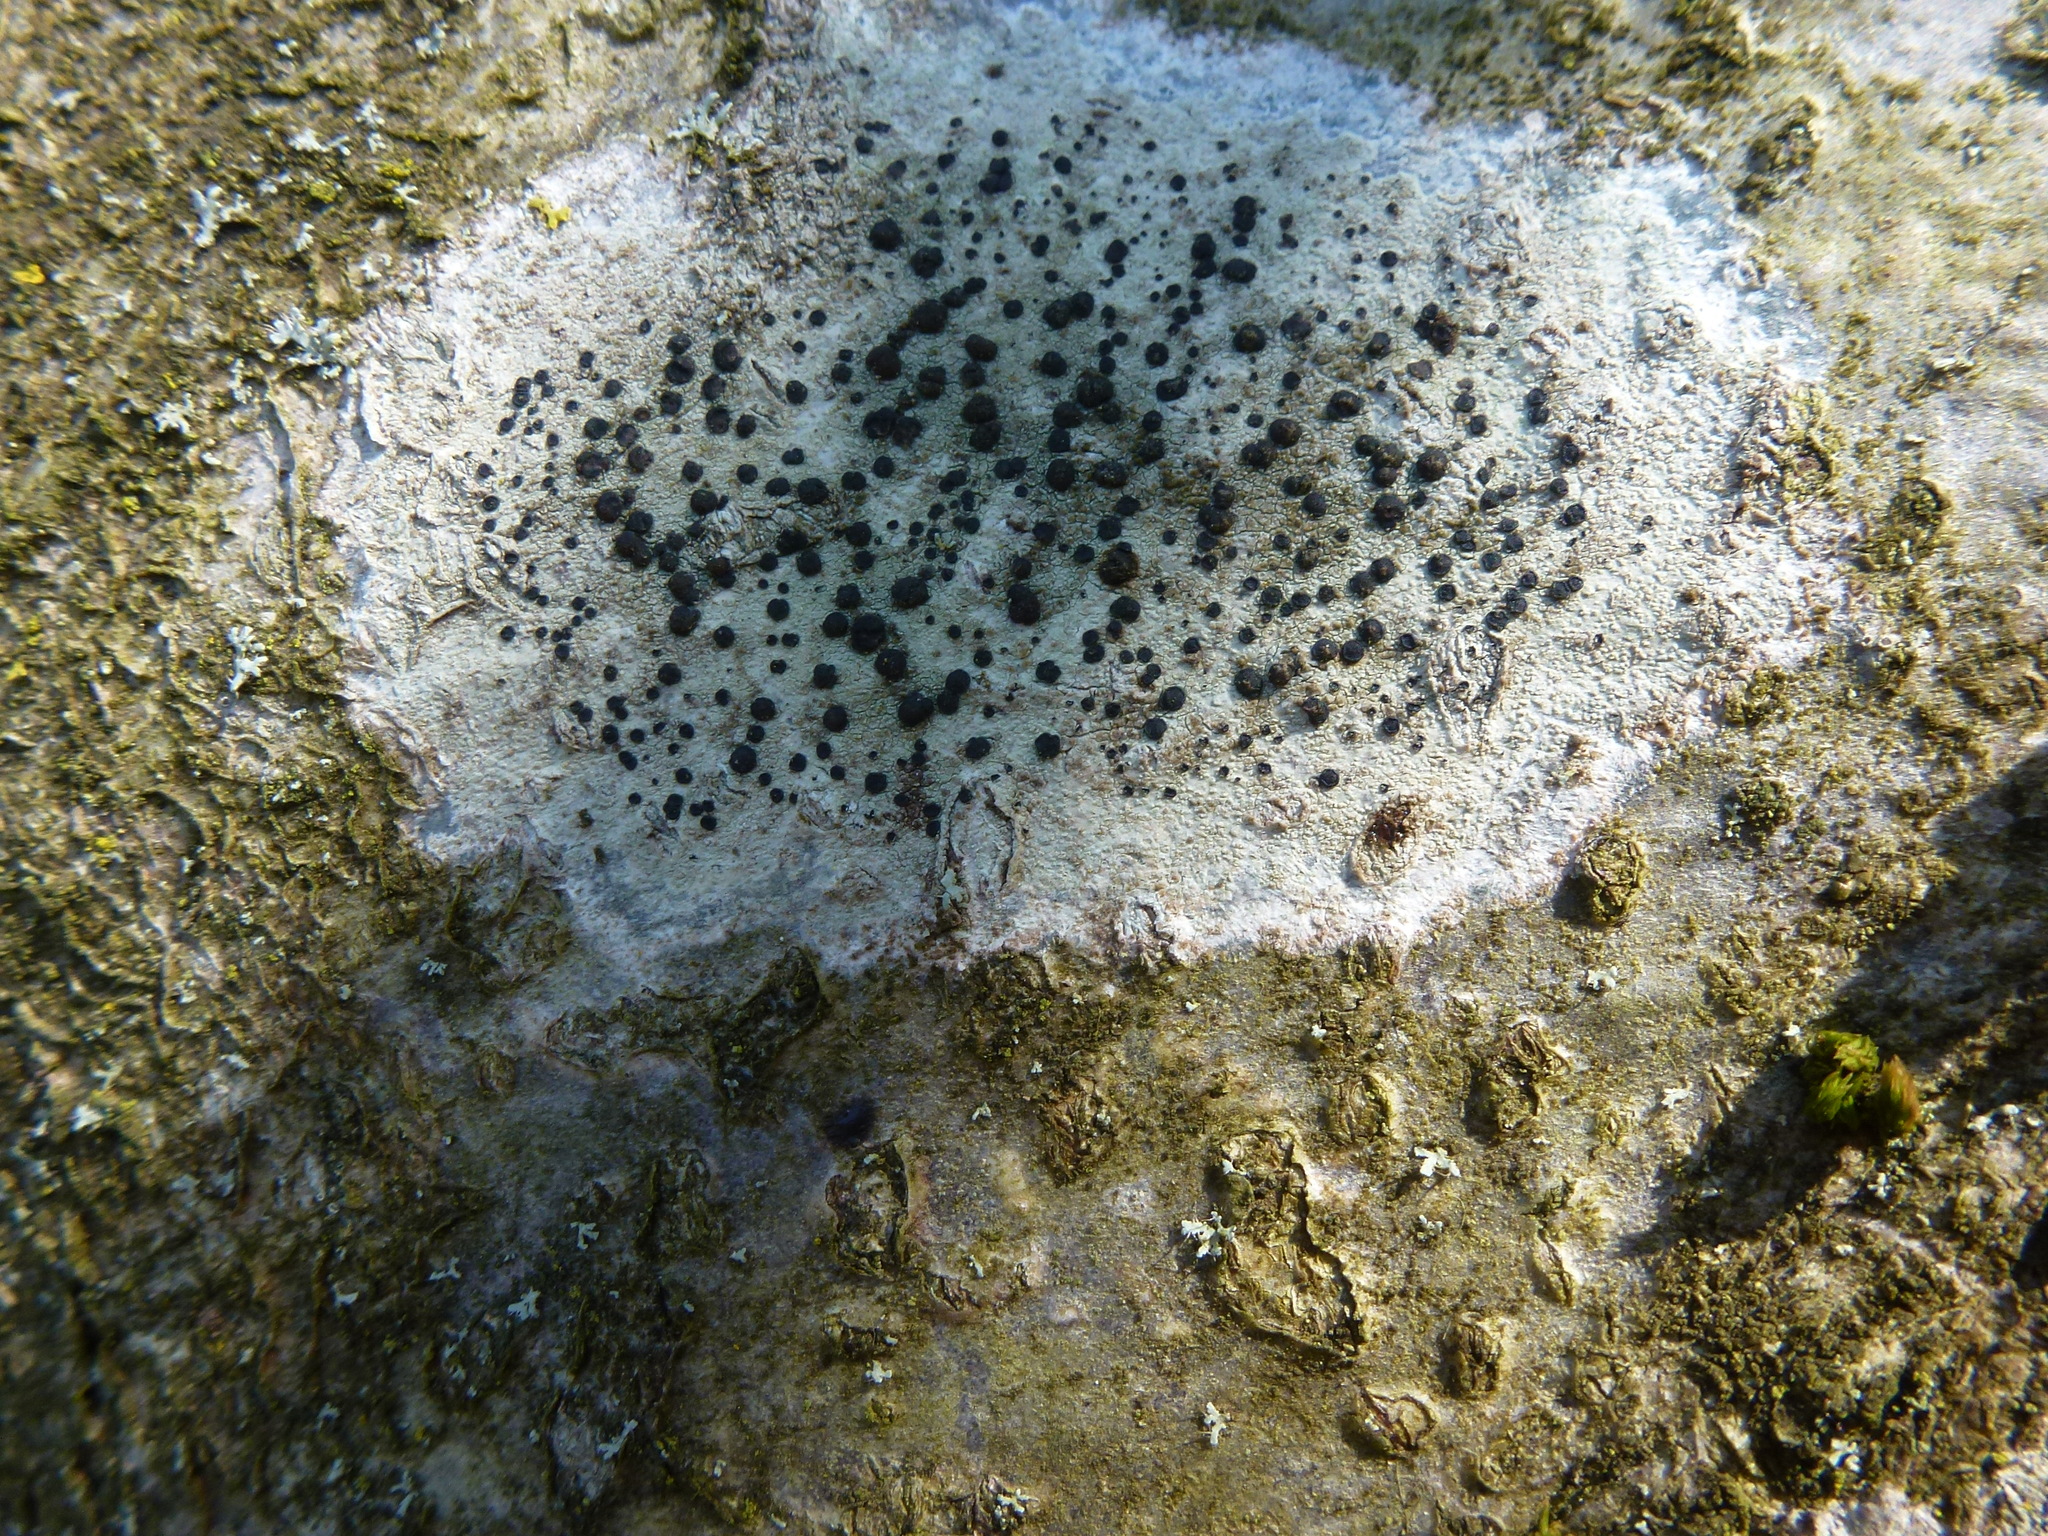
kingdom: Fungi
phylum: Ascomycota
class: Lecanoromycetes
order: Lecanorales
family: Lecanoraceae
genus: Lecidella
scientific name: Lecidella elaeochroma
